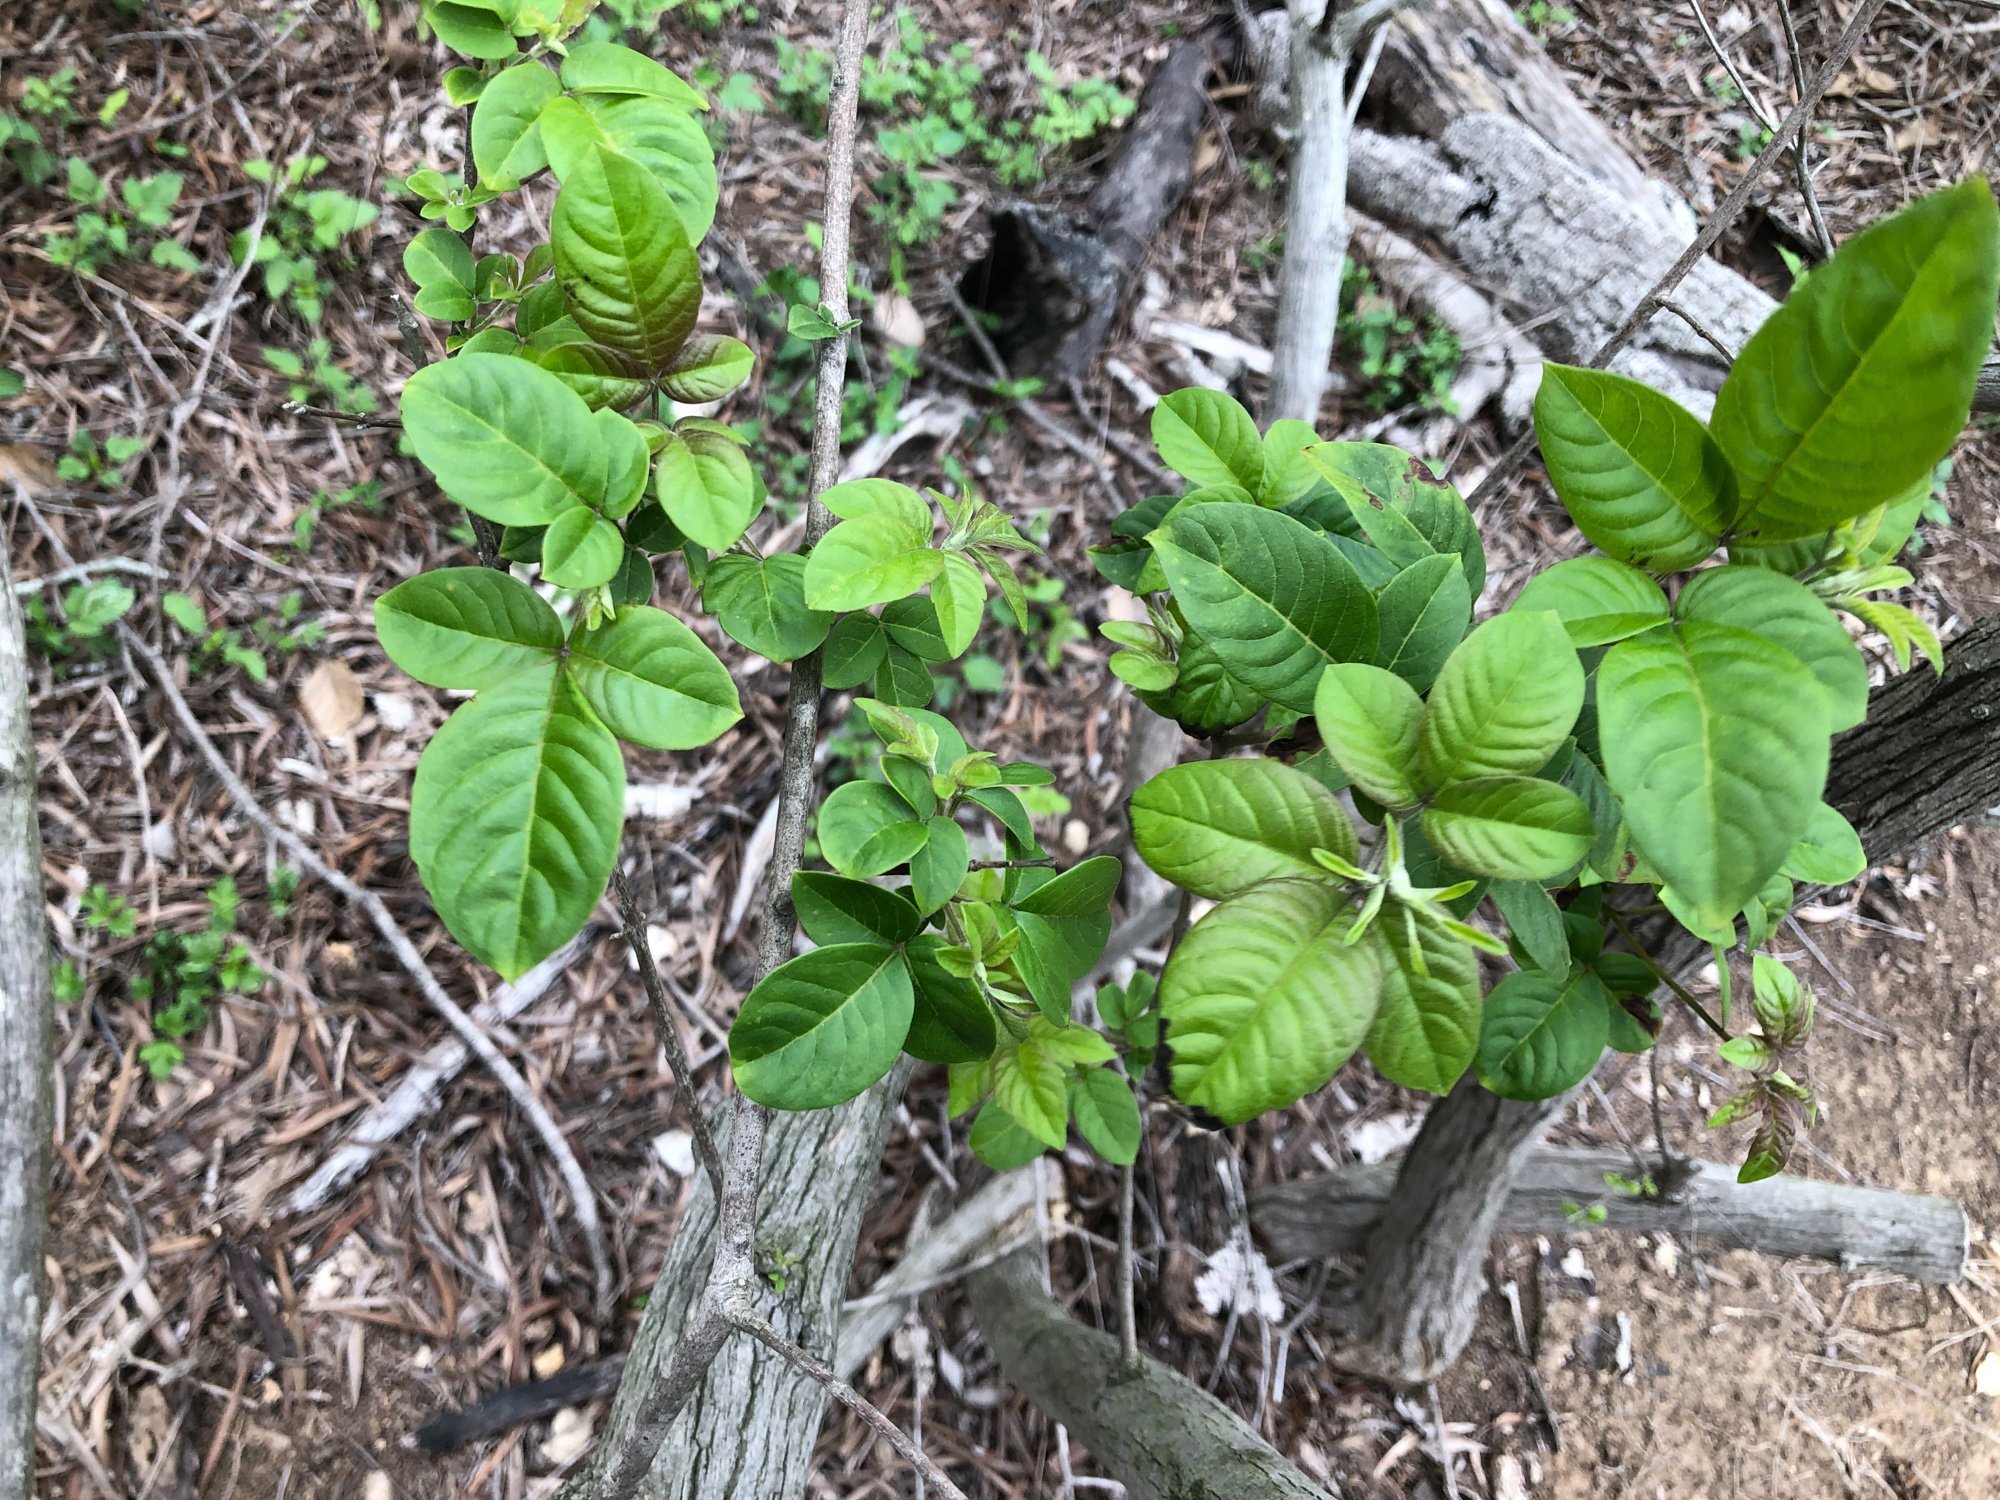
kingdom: Plantae
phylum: Tracheophyta
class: Magnoliopsida
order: Lamiales
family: Lamiaceae
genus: Vitex
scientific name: Vitex negundo
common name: Chinese chastetree
